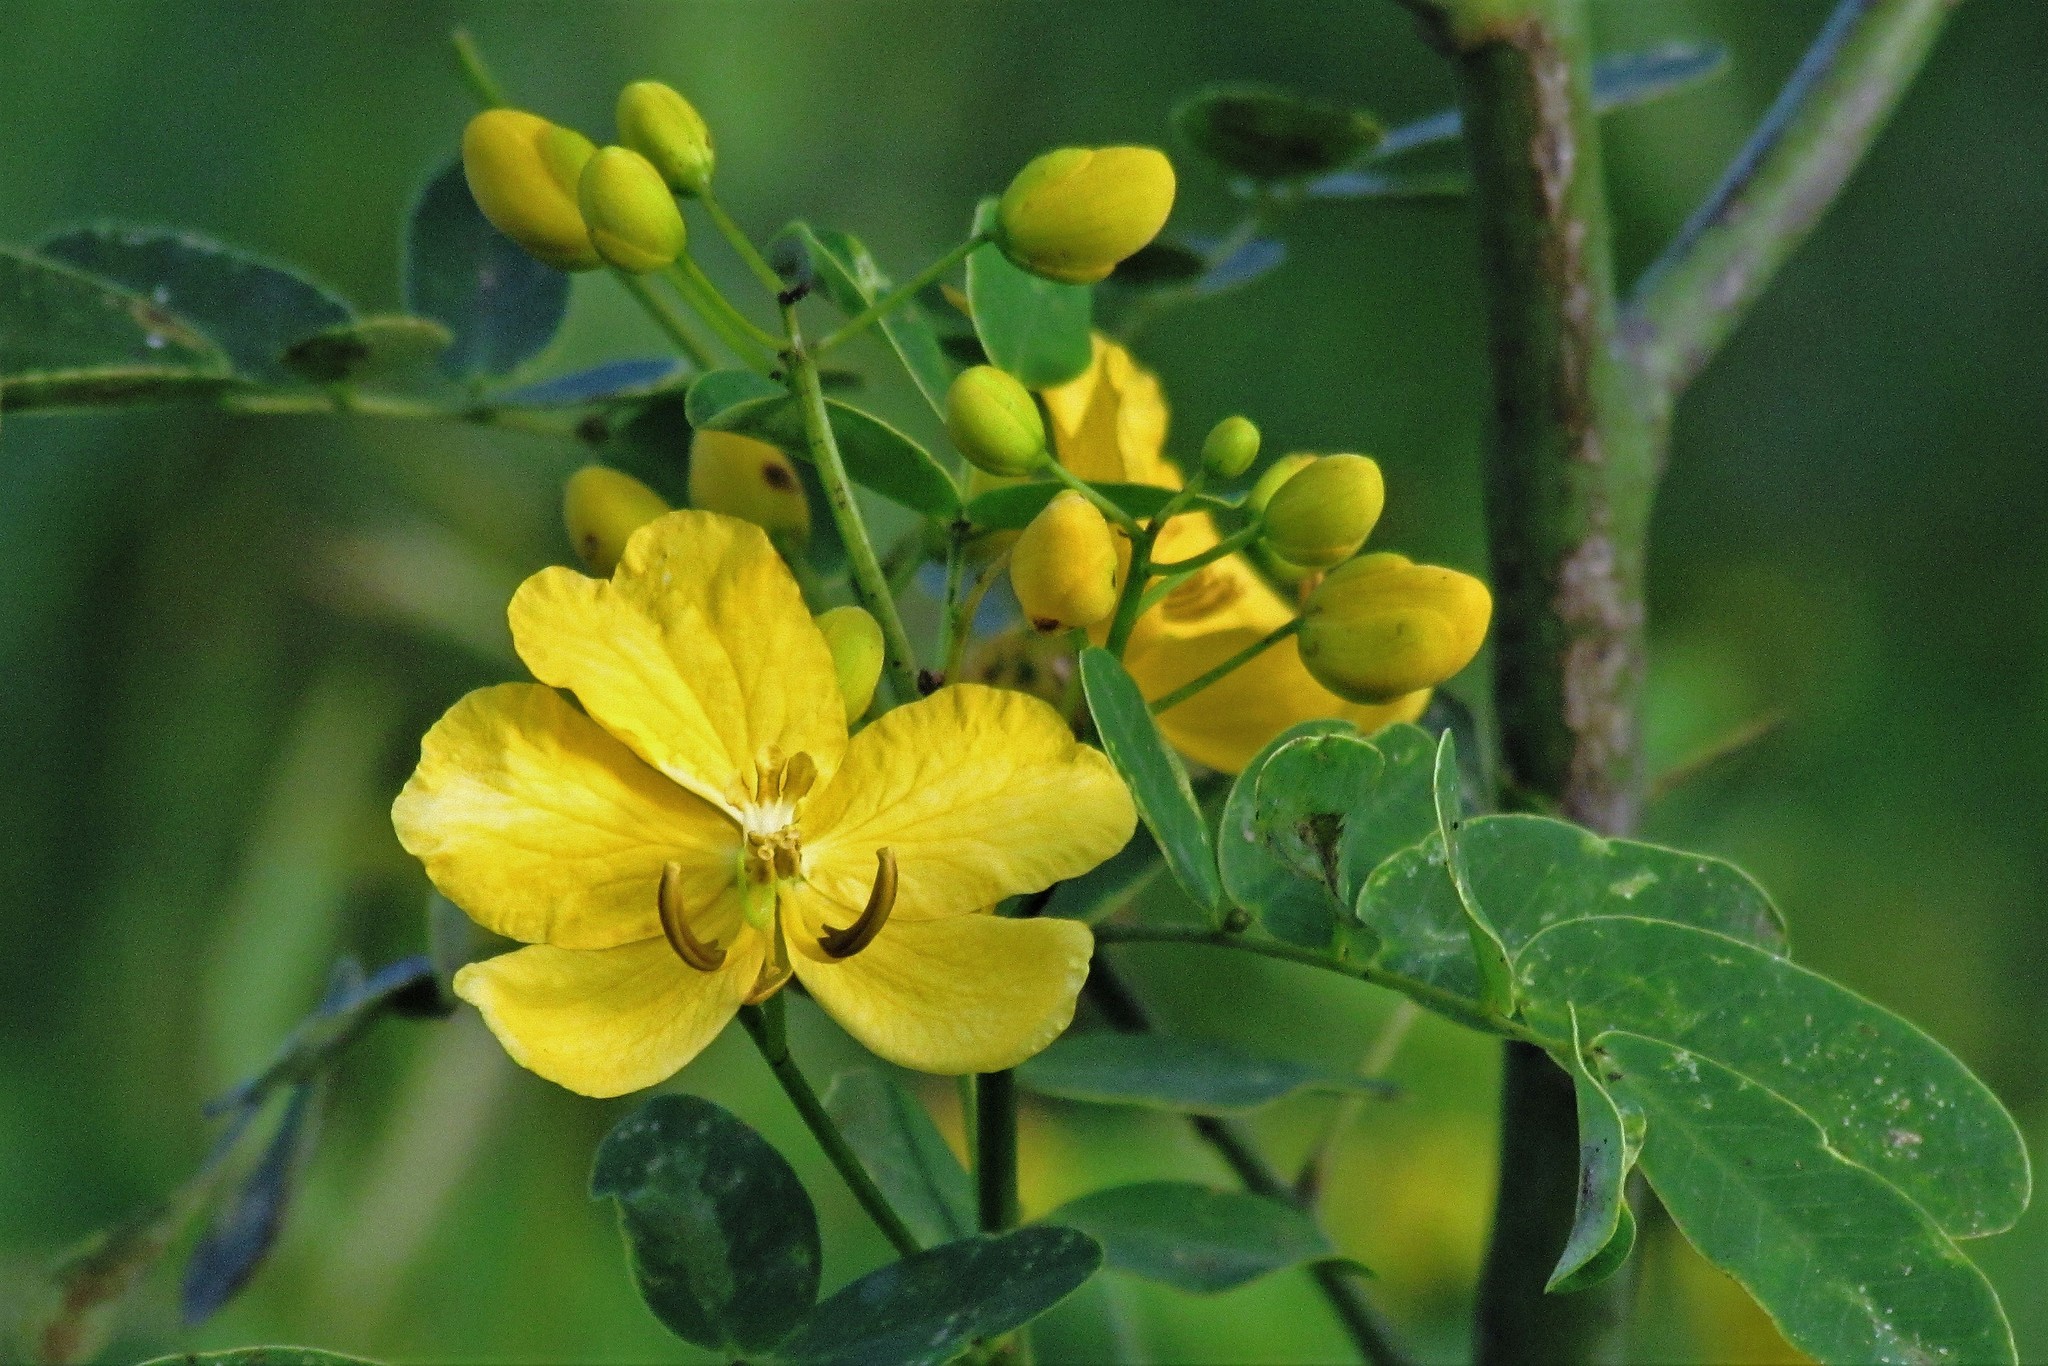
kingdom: Plantae
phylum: Tracheophyta
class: Magnoliopsida
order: Fabales
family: Fabaceae
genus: Senna
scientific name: Senna pendula
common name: Easter cassia
